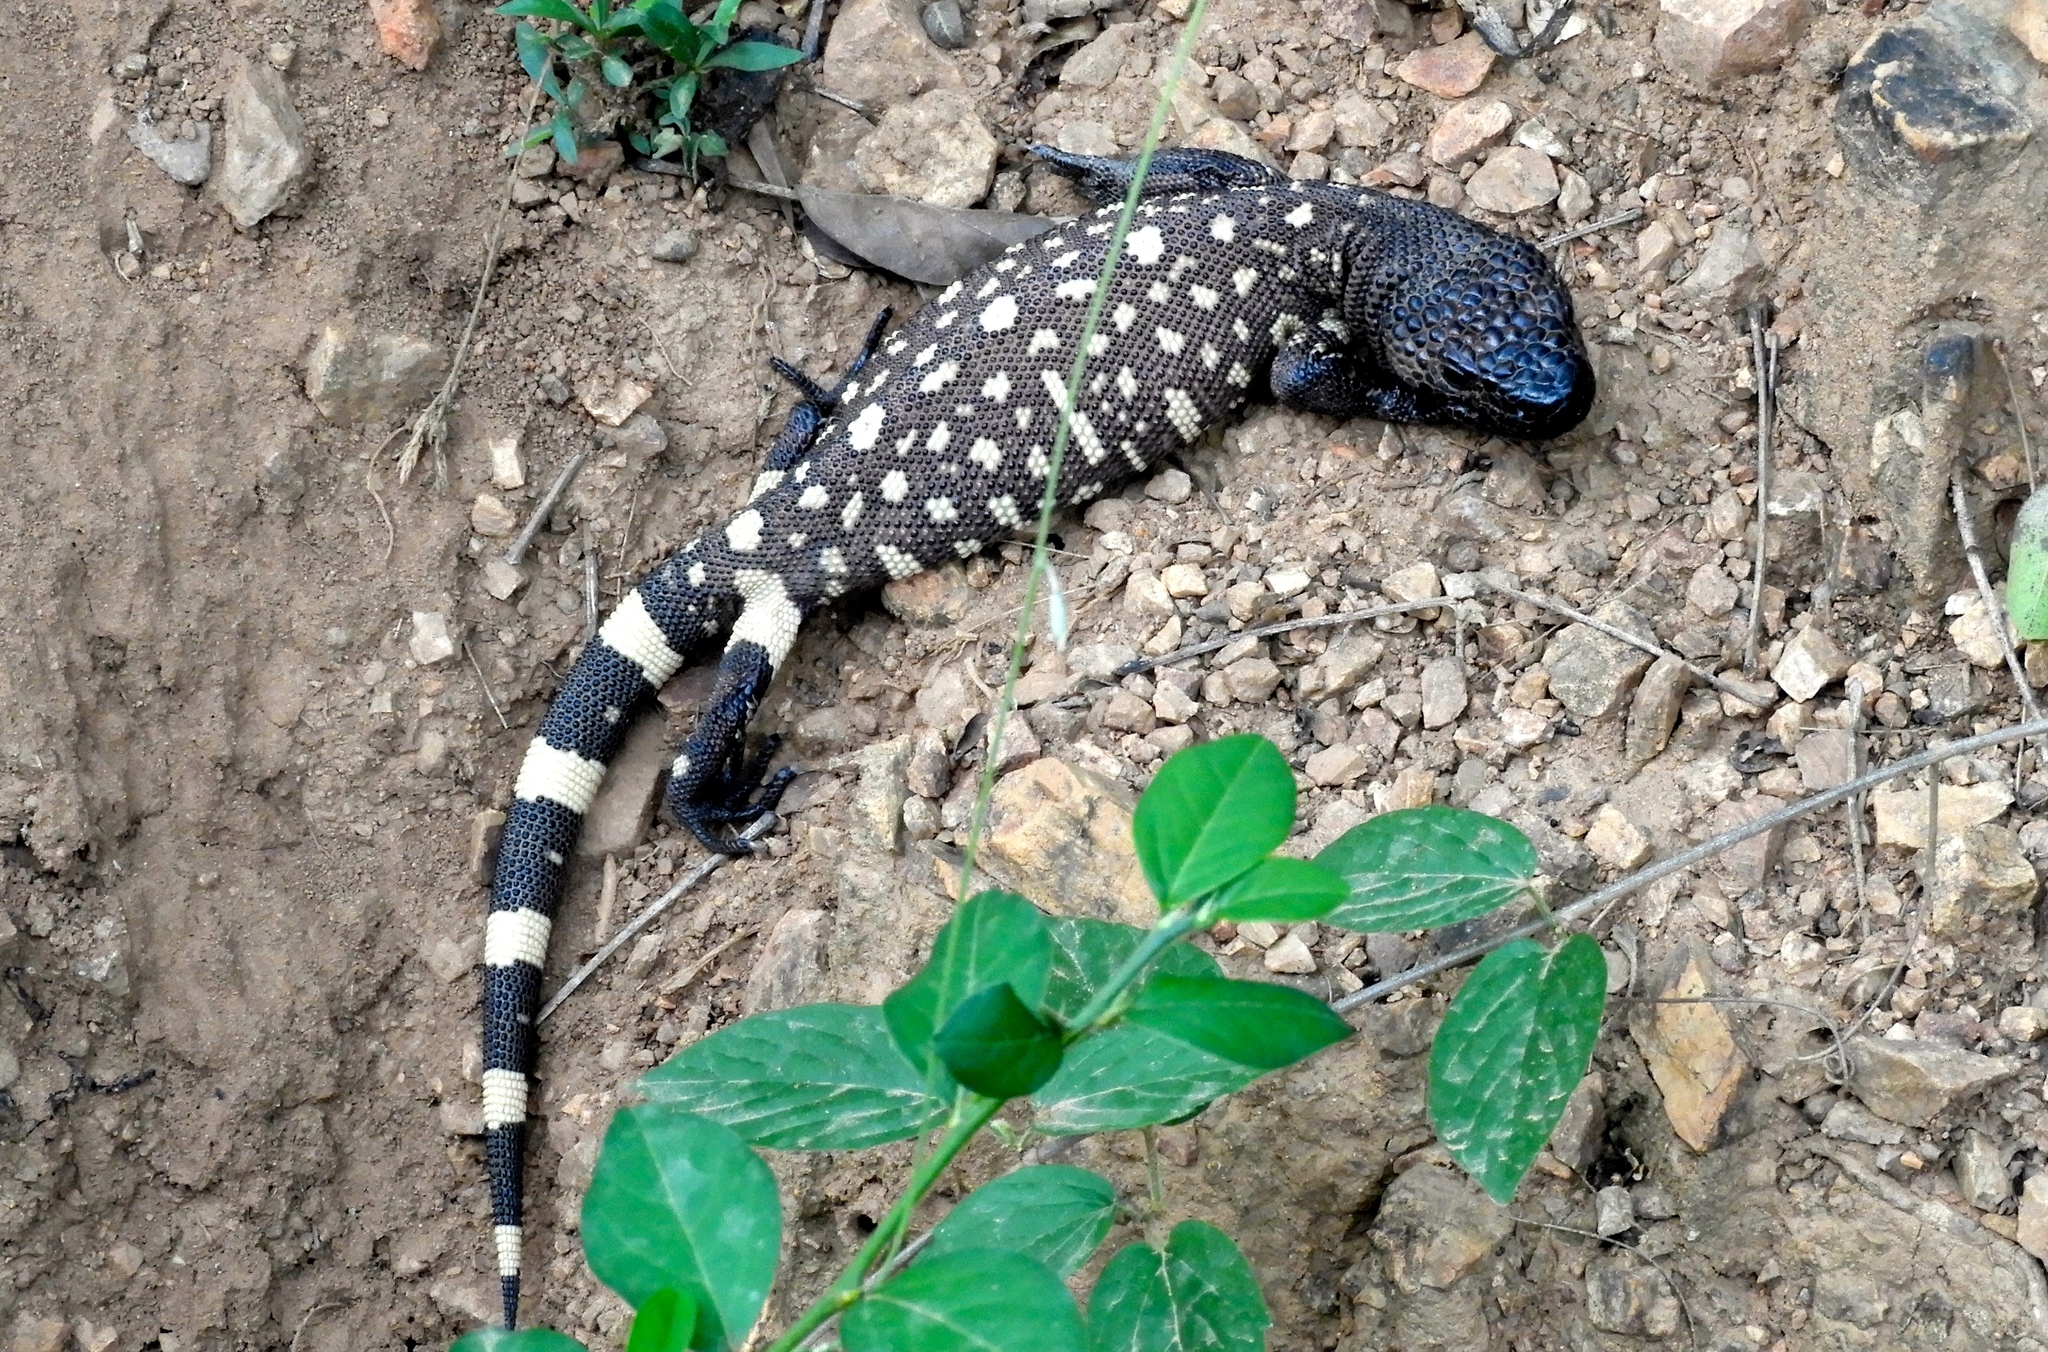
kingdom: Animalia
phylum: Chordata
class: Squamata
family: Helodermatidae
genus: Heloderma
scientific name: Heloderma horridum
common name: Mexican beaded lizard
